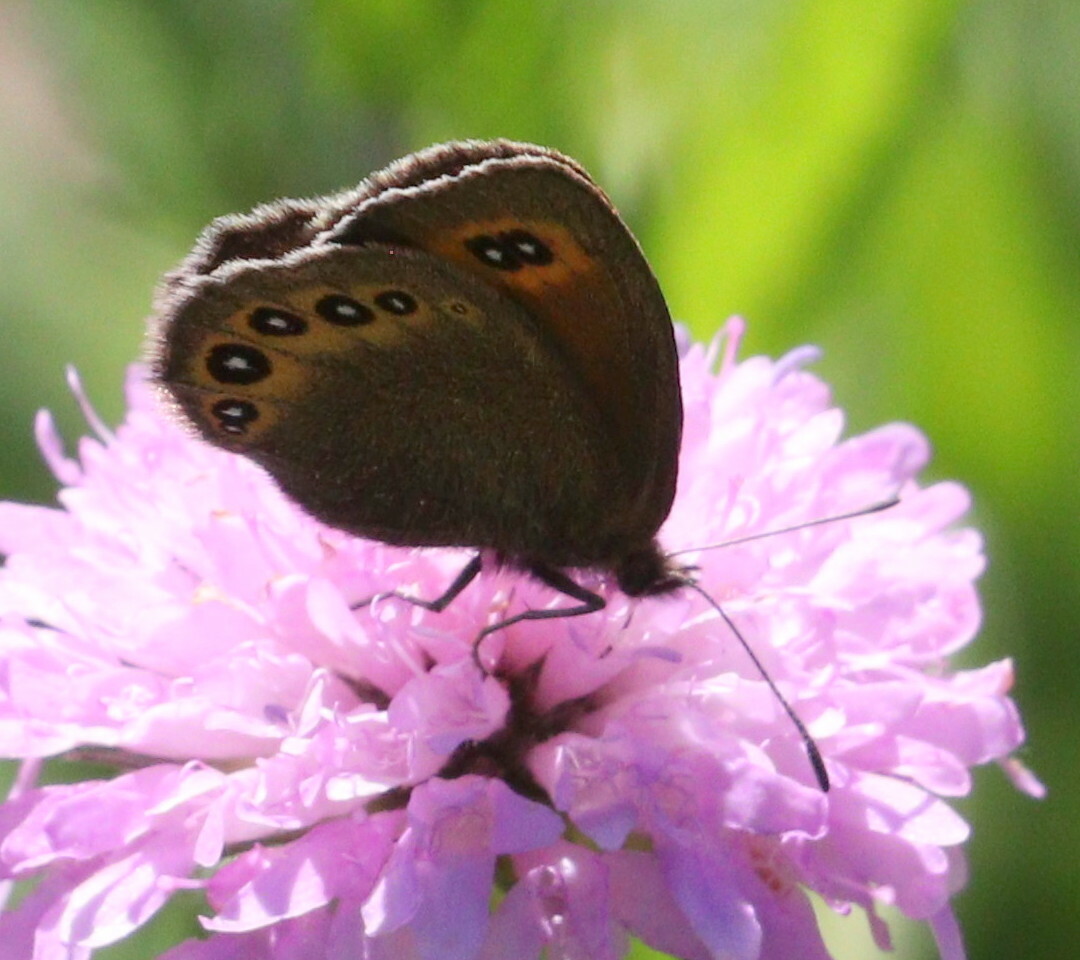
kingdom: Animalia
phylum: Arthropoda
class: Insecta
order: Lepidoptera
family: Nymphalidae
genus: Erebia
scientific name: Erebia oeme
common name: Bright-eyed ringlet
